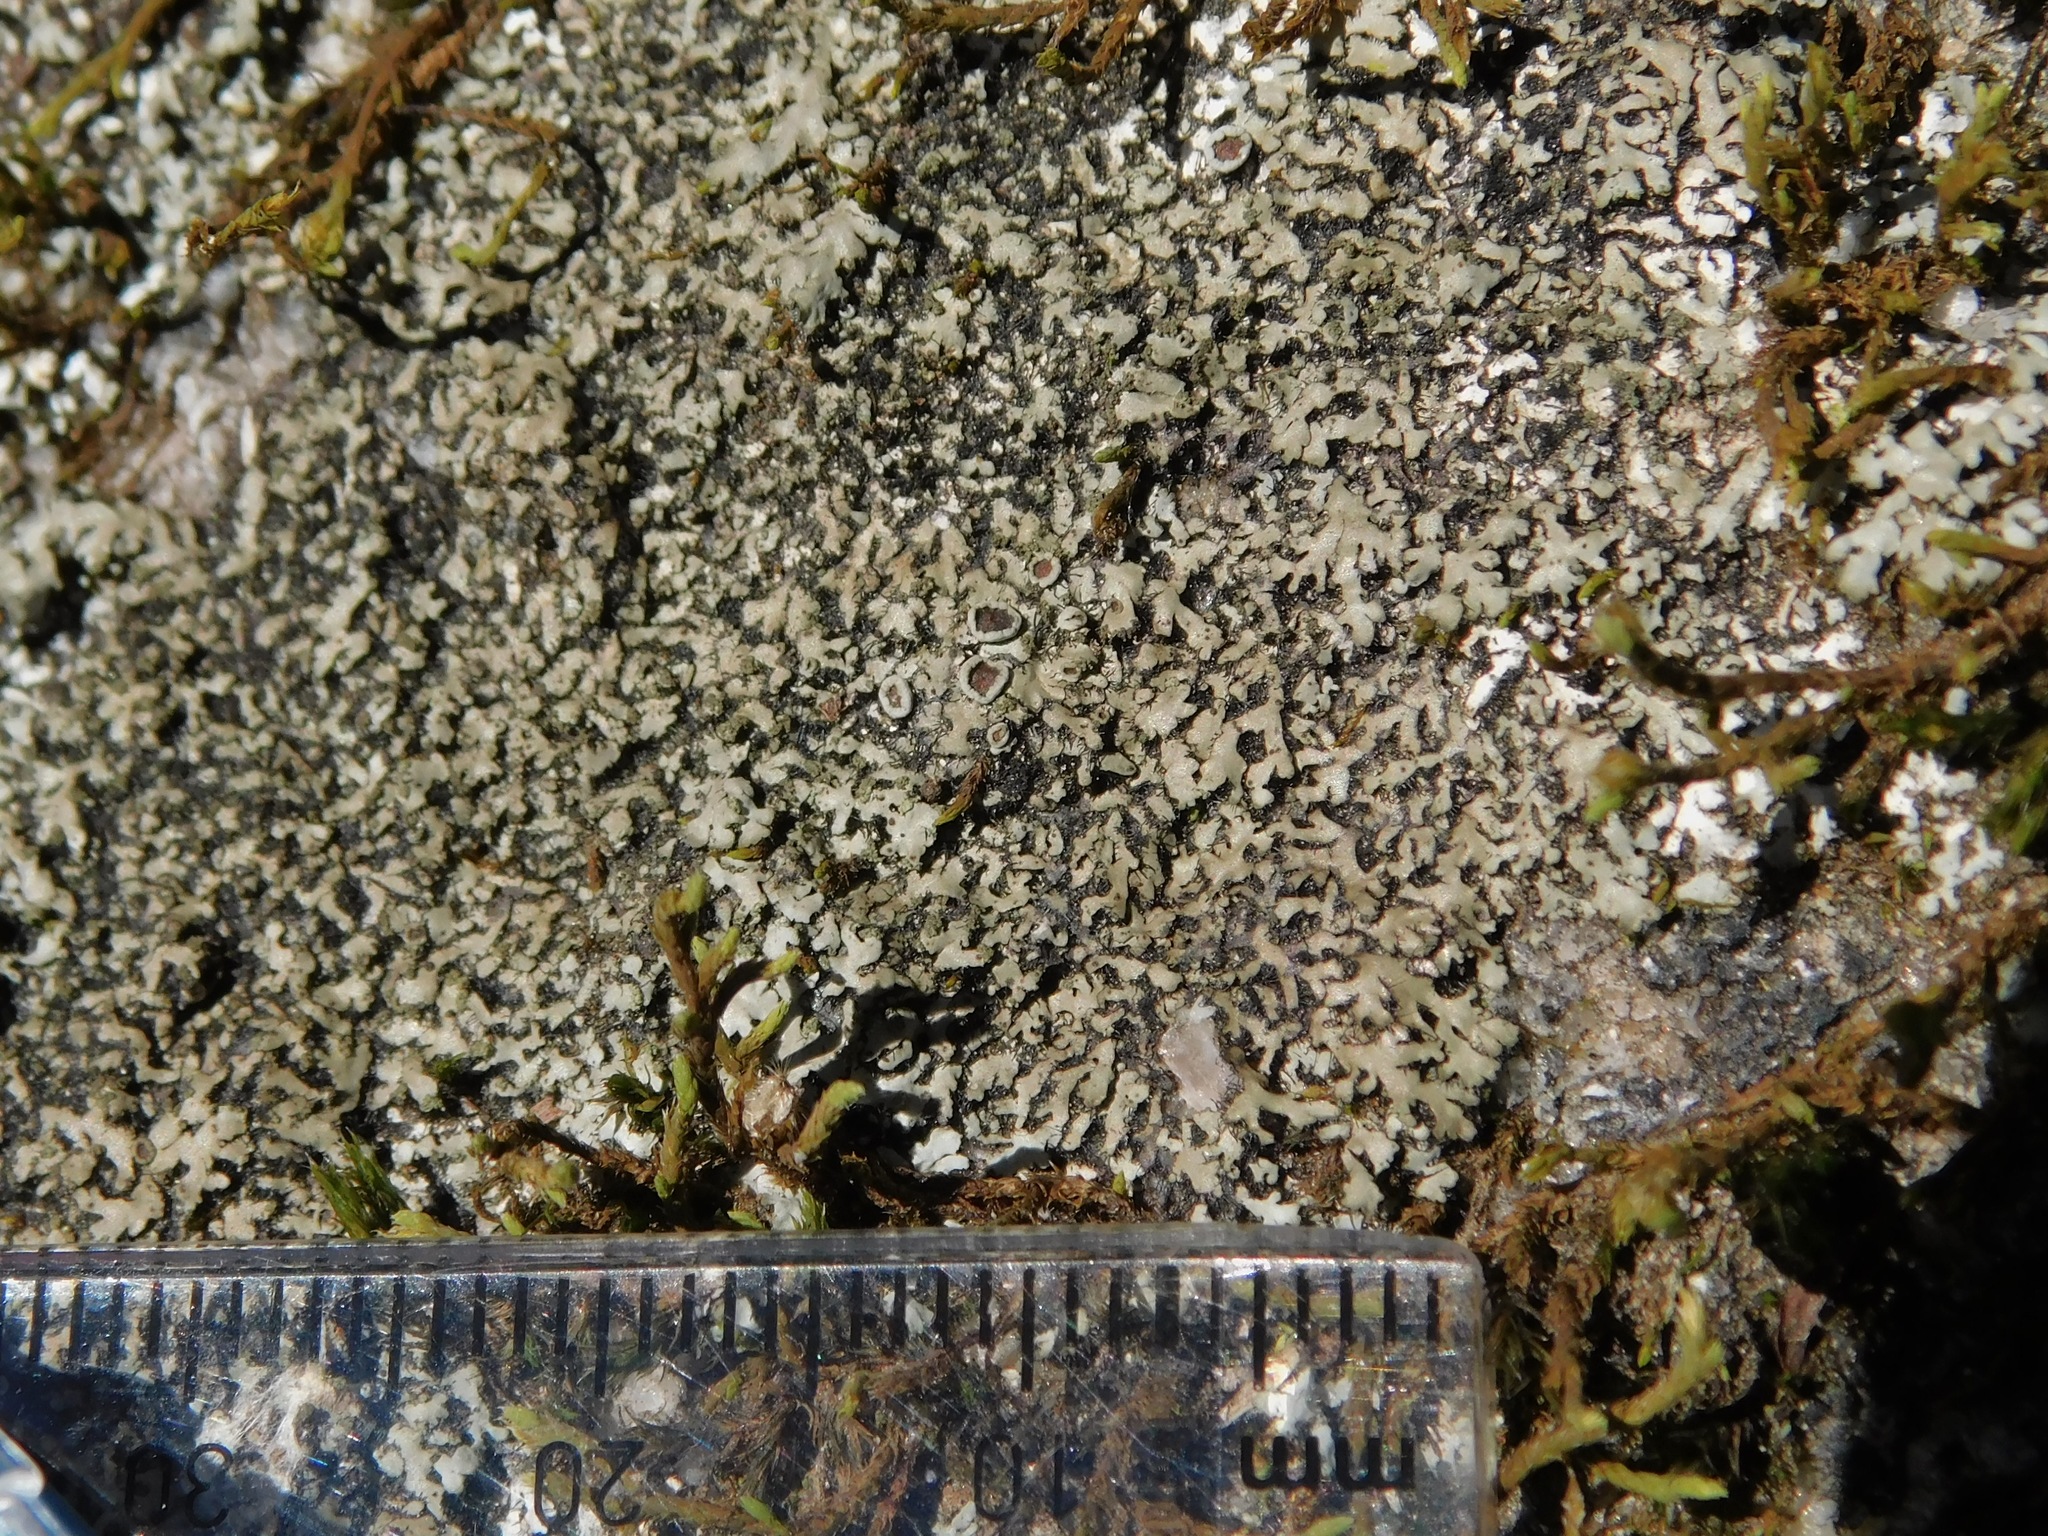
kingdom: Fungi
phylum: Ascomycota
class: Lecanoromycetes
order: Caliciales
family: Physciaceae
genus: Kurokawia
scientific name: Kurokawia palmulata
